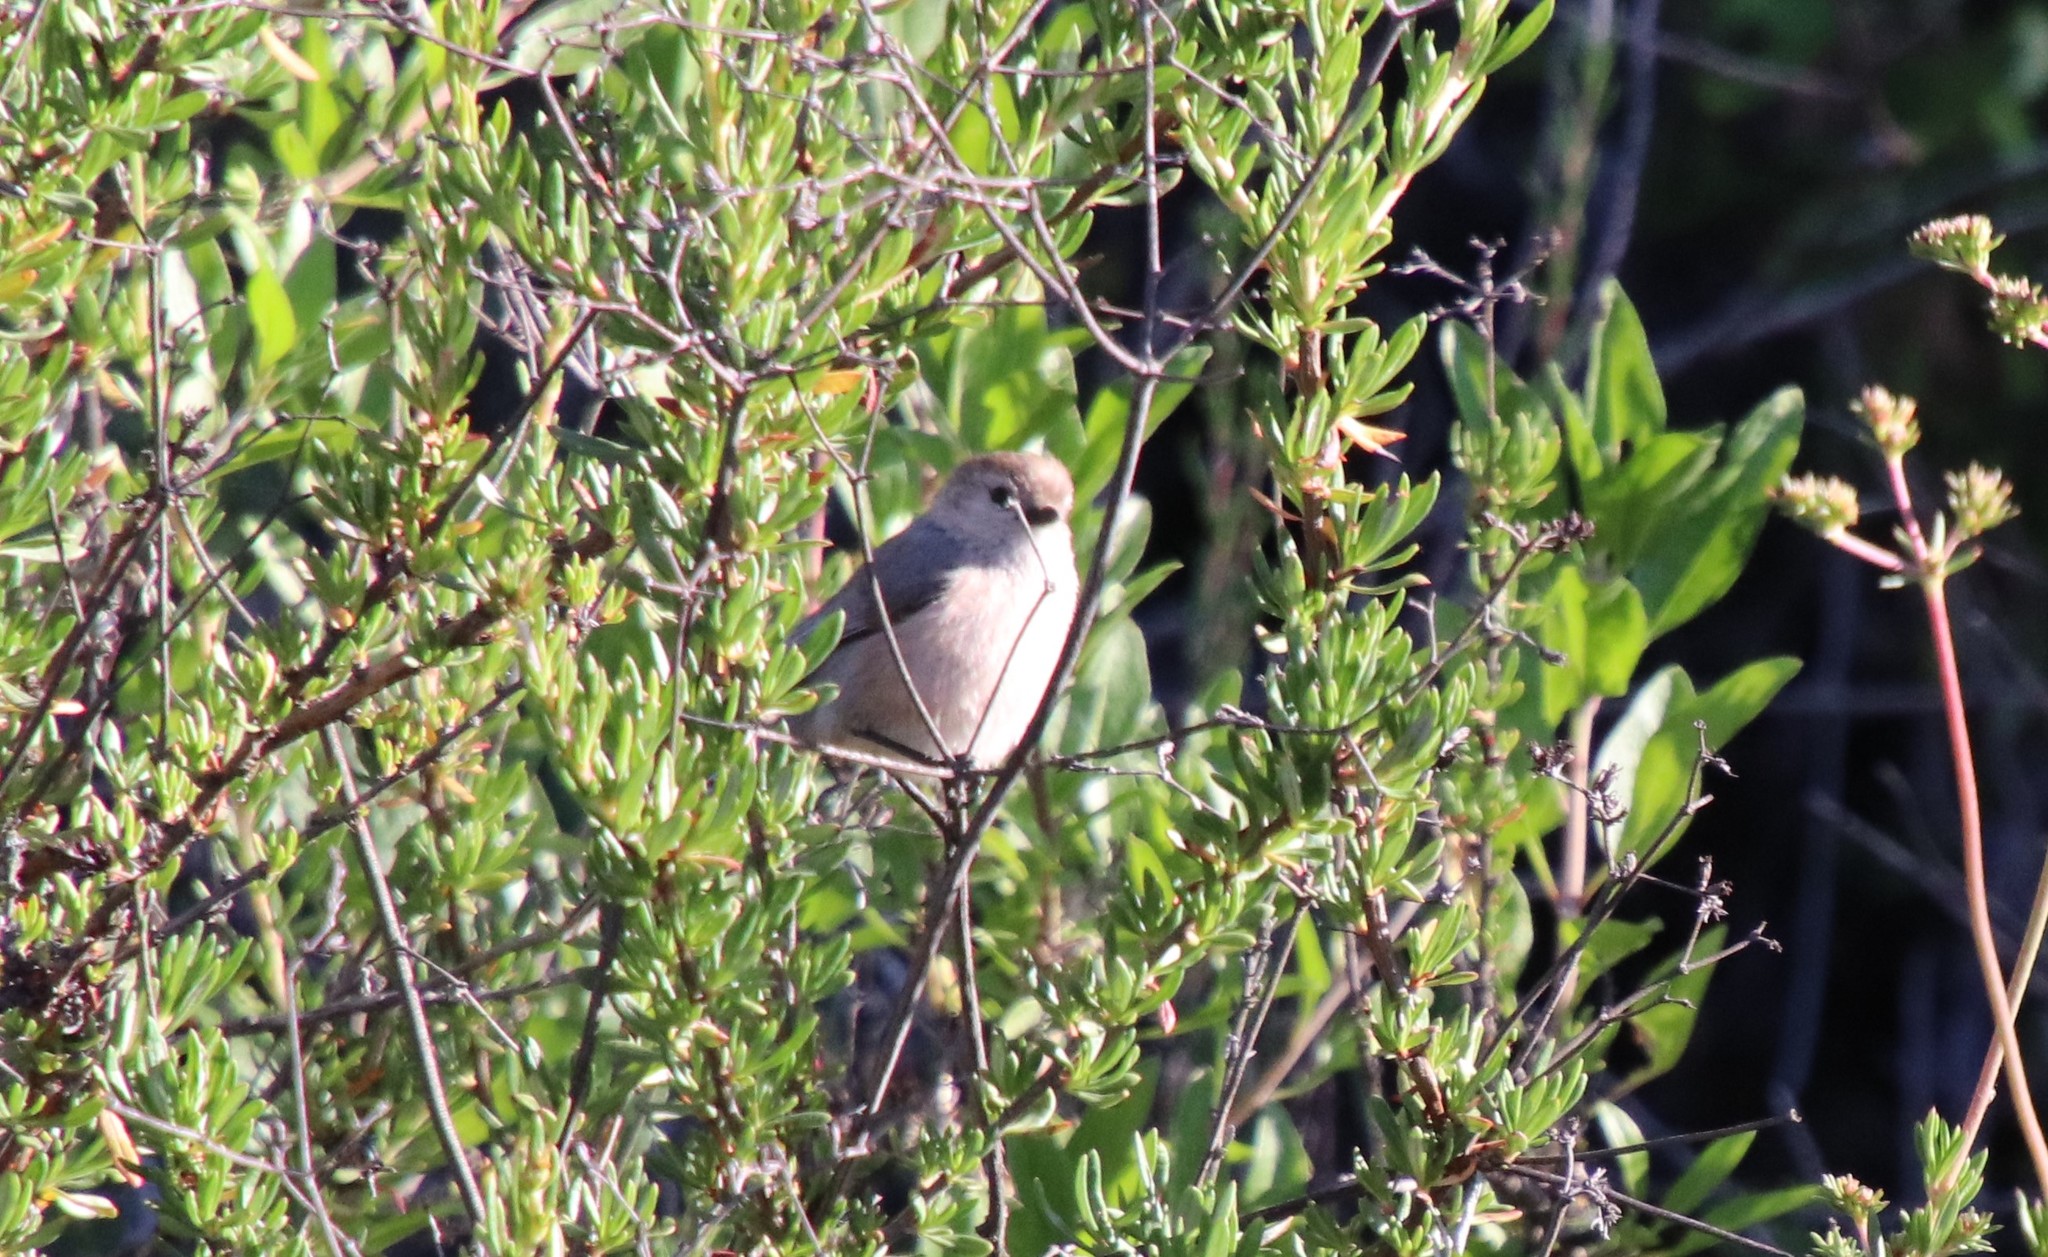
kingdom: Animalia
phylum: Chordata
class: Aves
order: Passeriformes
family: Aegithalidae
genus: Psaltriparus
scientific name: Psaltriparus minimus
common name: American bushtit
